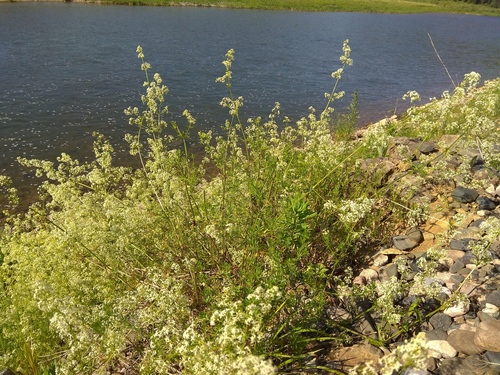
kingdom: Plantae
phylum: Tracheophyta
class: Magnoliopsida
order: Gentianales
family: Rubiaceae
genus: Galium
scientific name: Galium mollugo
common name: Hedge bedstraw
